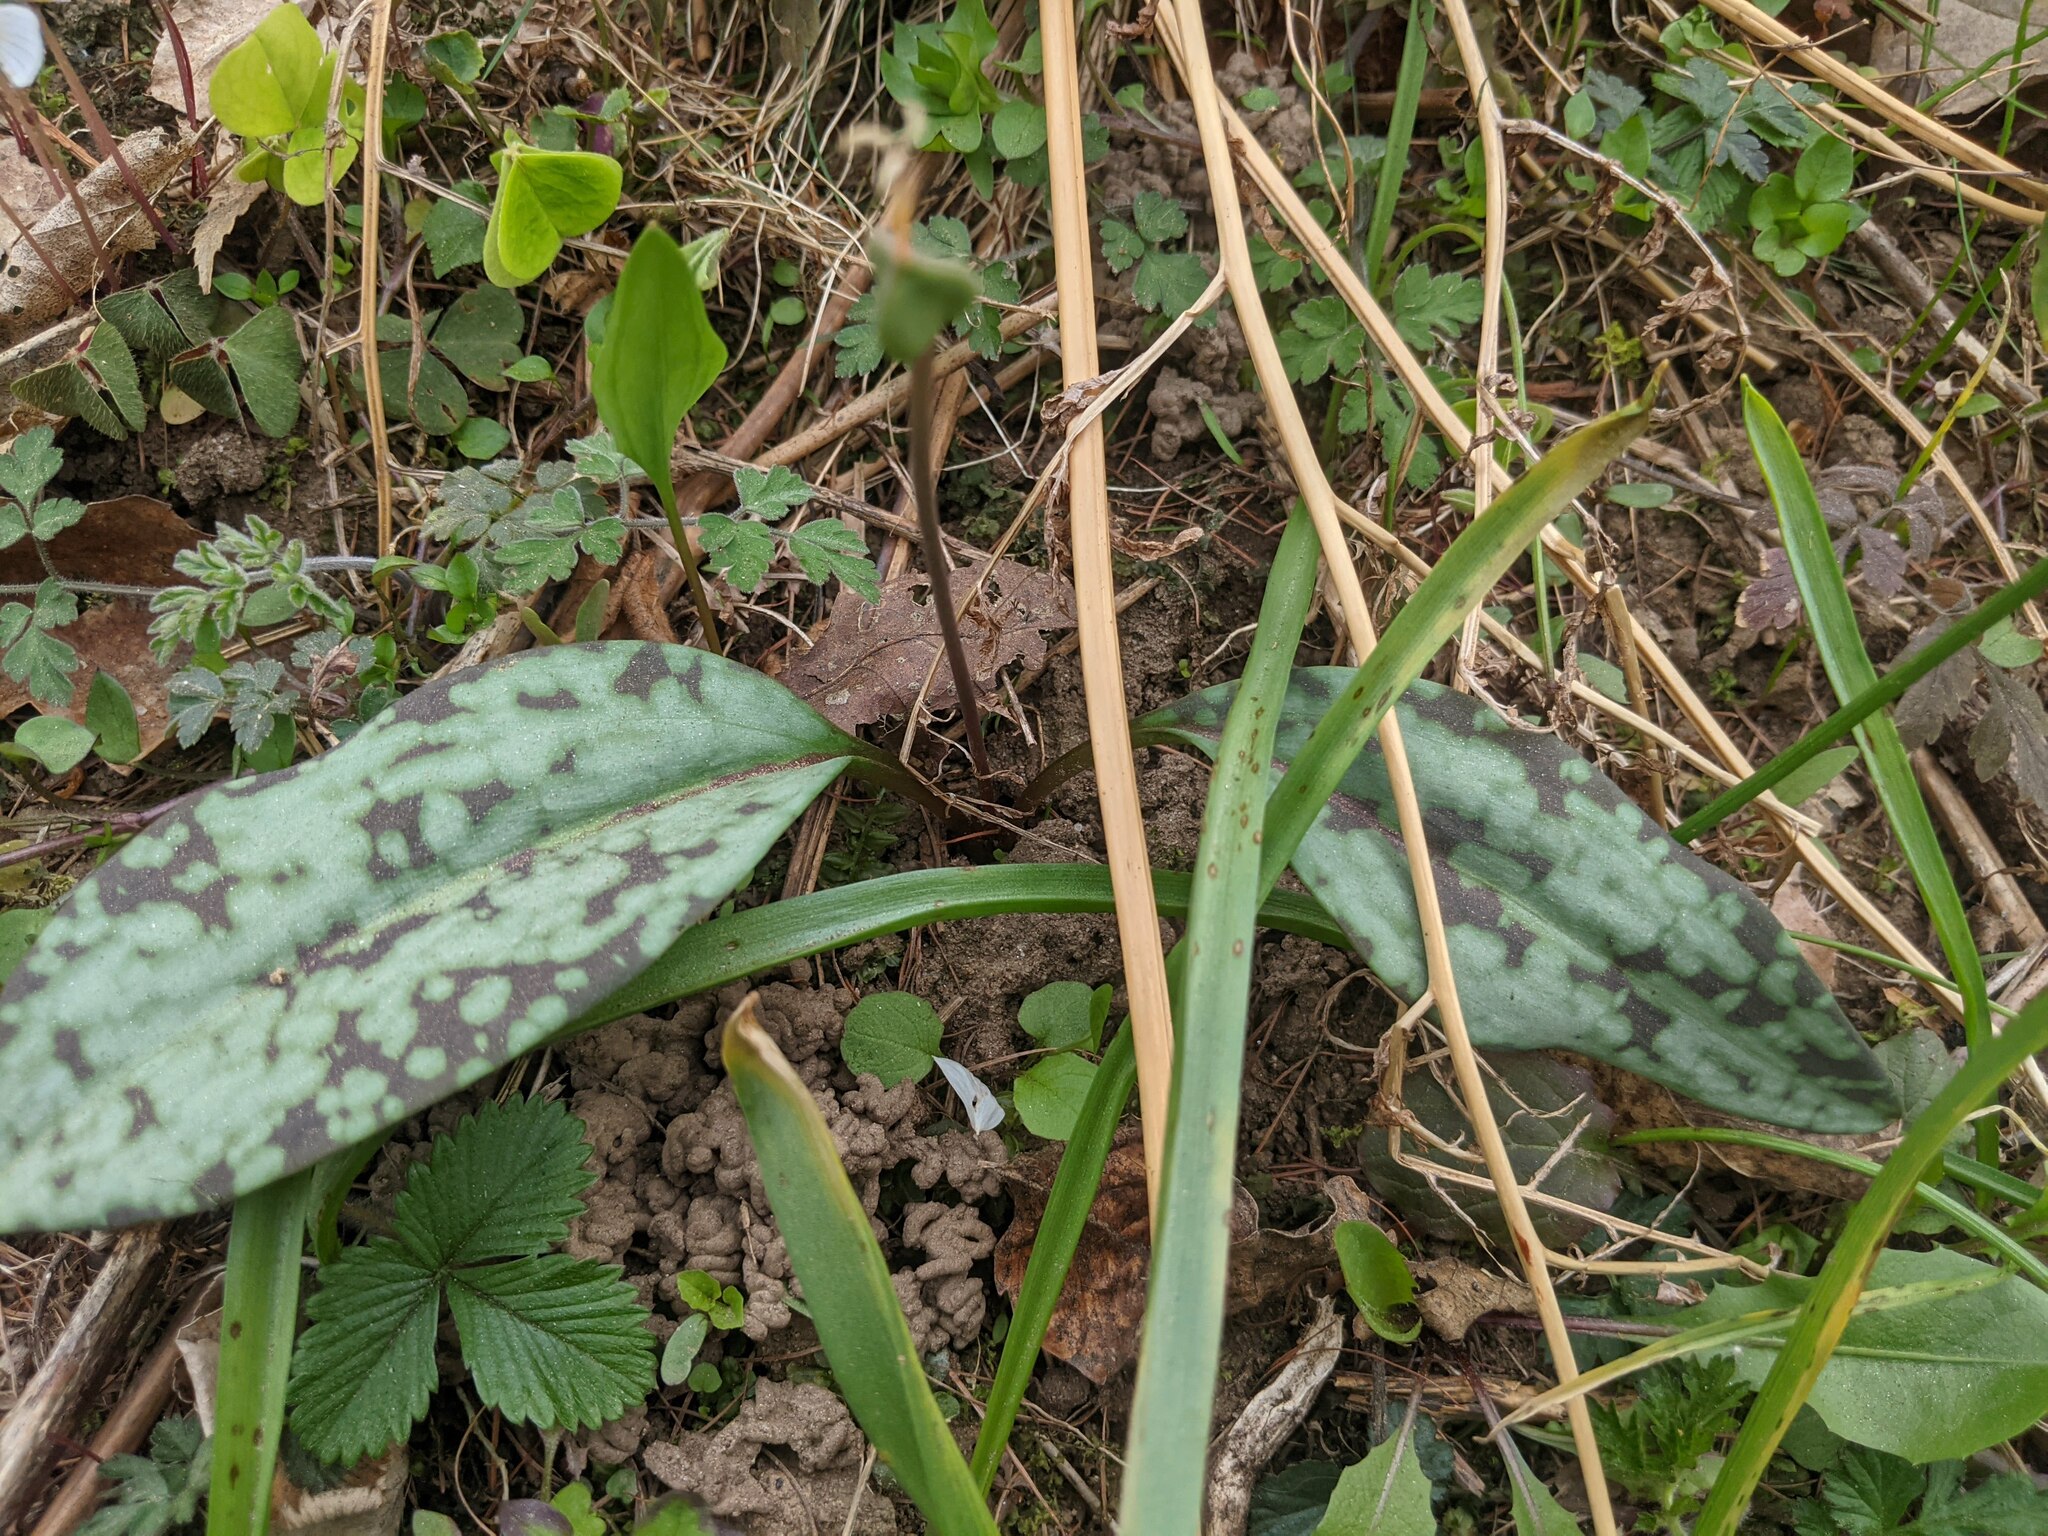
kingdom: Plantae
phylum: Tracheophyta
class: Liliopsida
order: Liliales
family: Liliaceae
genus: Erythronium
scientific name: Erythronium dens-canis
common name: Dog's-tooth-violet
